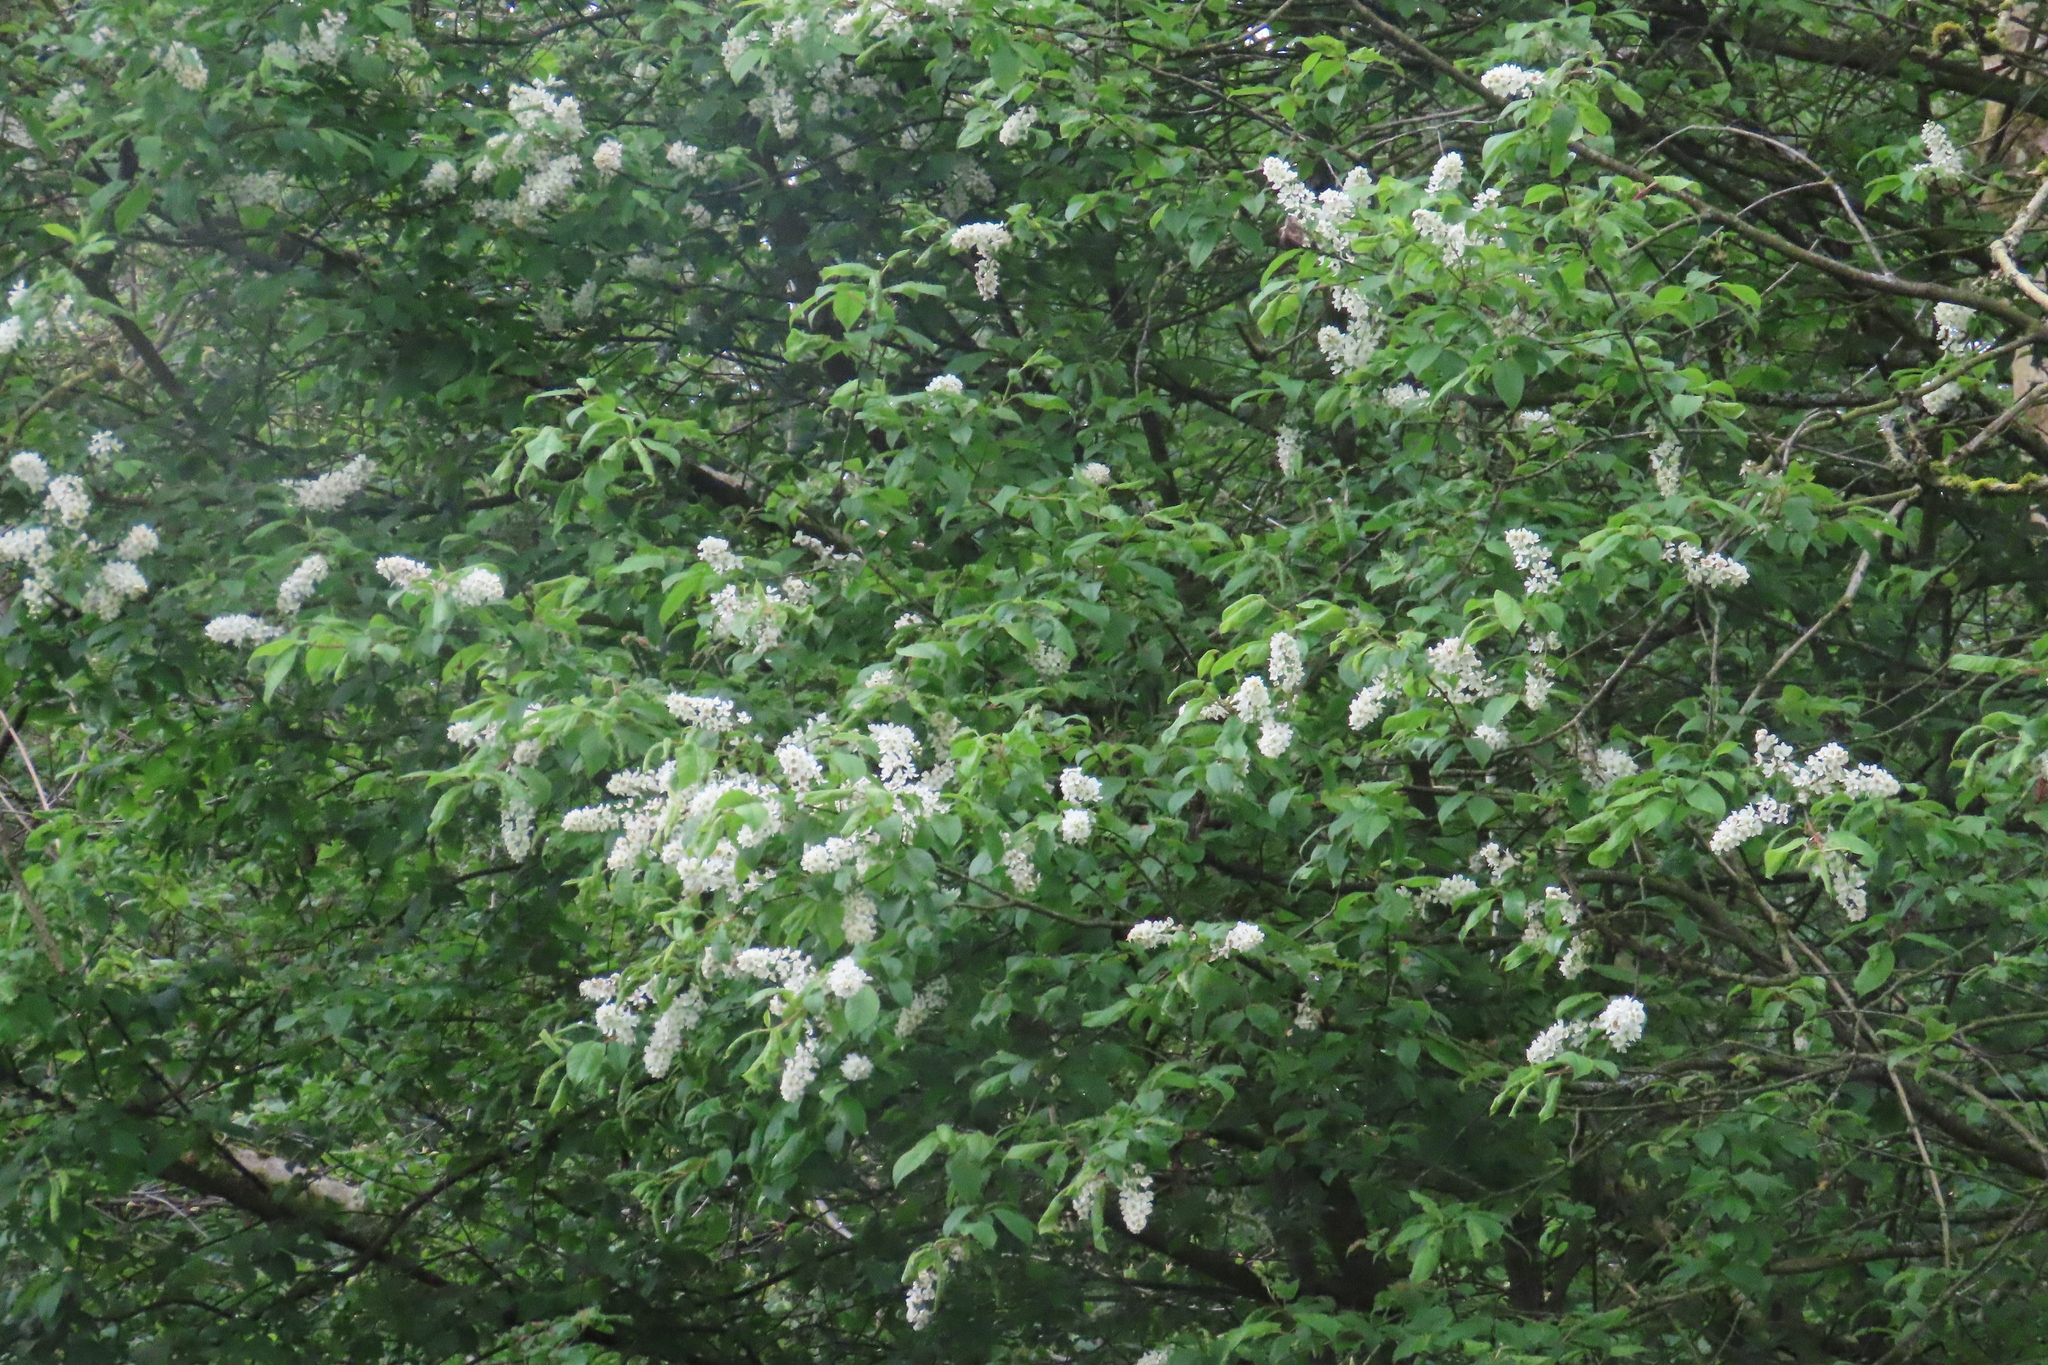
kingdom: Plantae
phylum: Tracheophyta
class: Magnoliopsida
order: Rosales
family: Rosaceae
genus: Prunus
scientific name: Prunus padus
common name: Bird cherry
